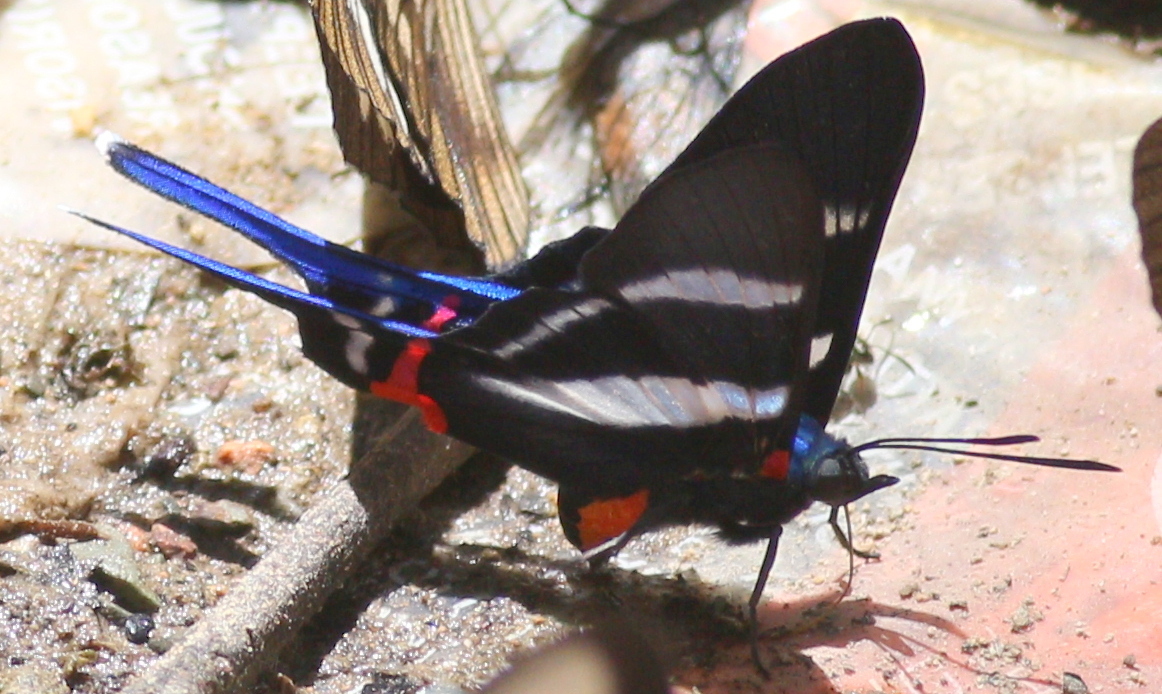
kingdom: Animalia
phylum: Arthropoda
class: Insecta
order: Lepidoptera
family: Riodinidae
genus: Rhetus
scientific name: Rhetus arcius
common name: Long-tailed metalmark
